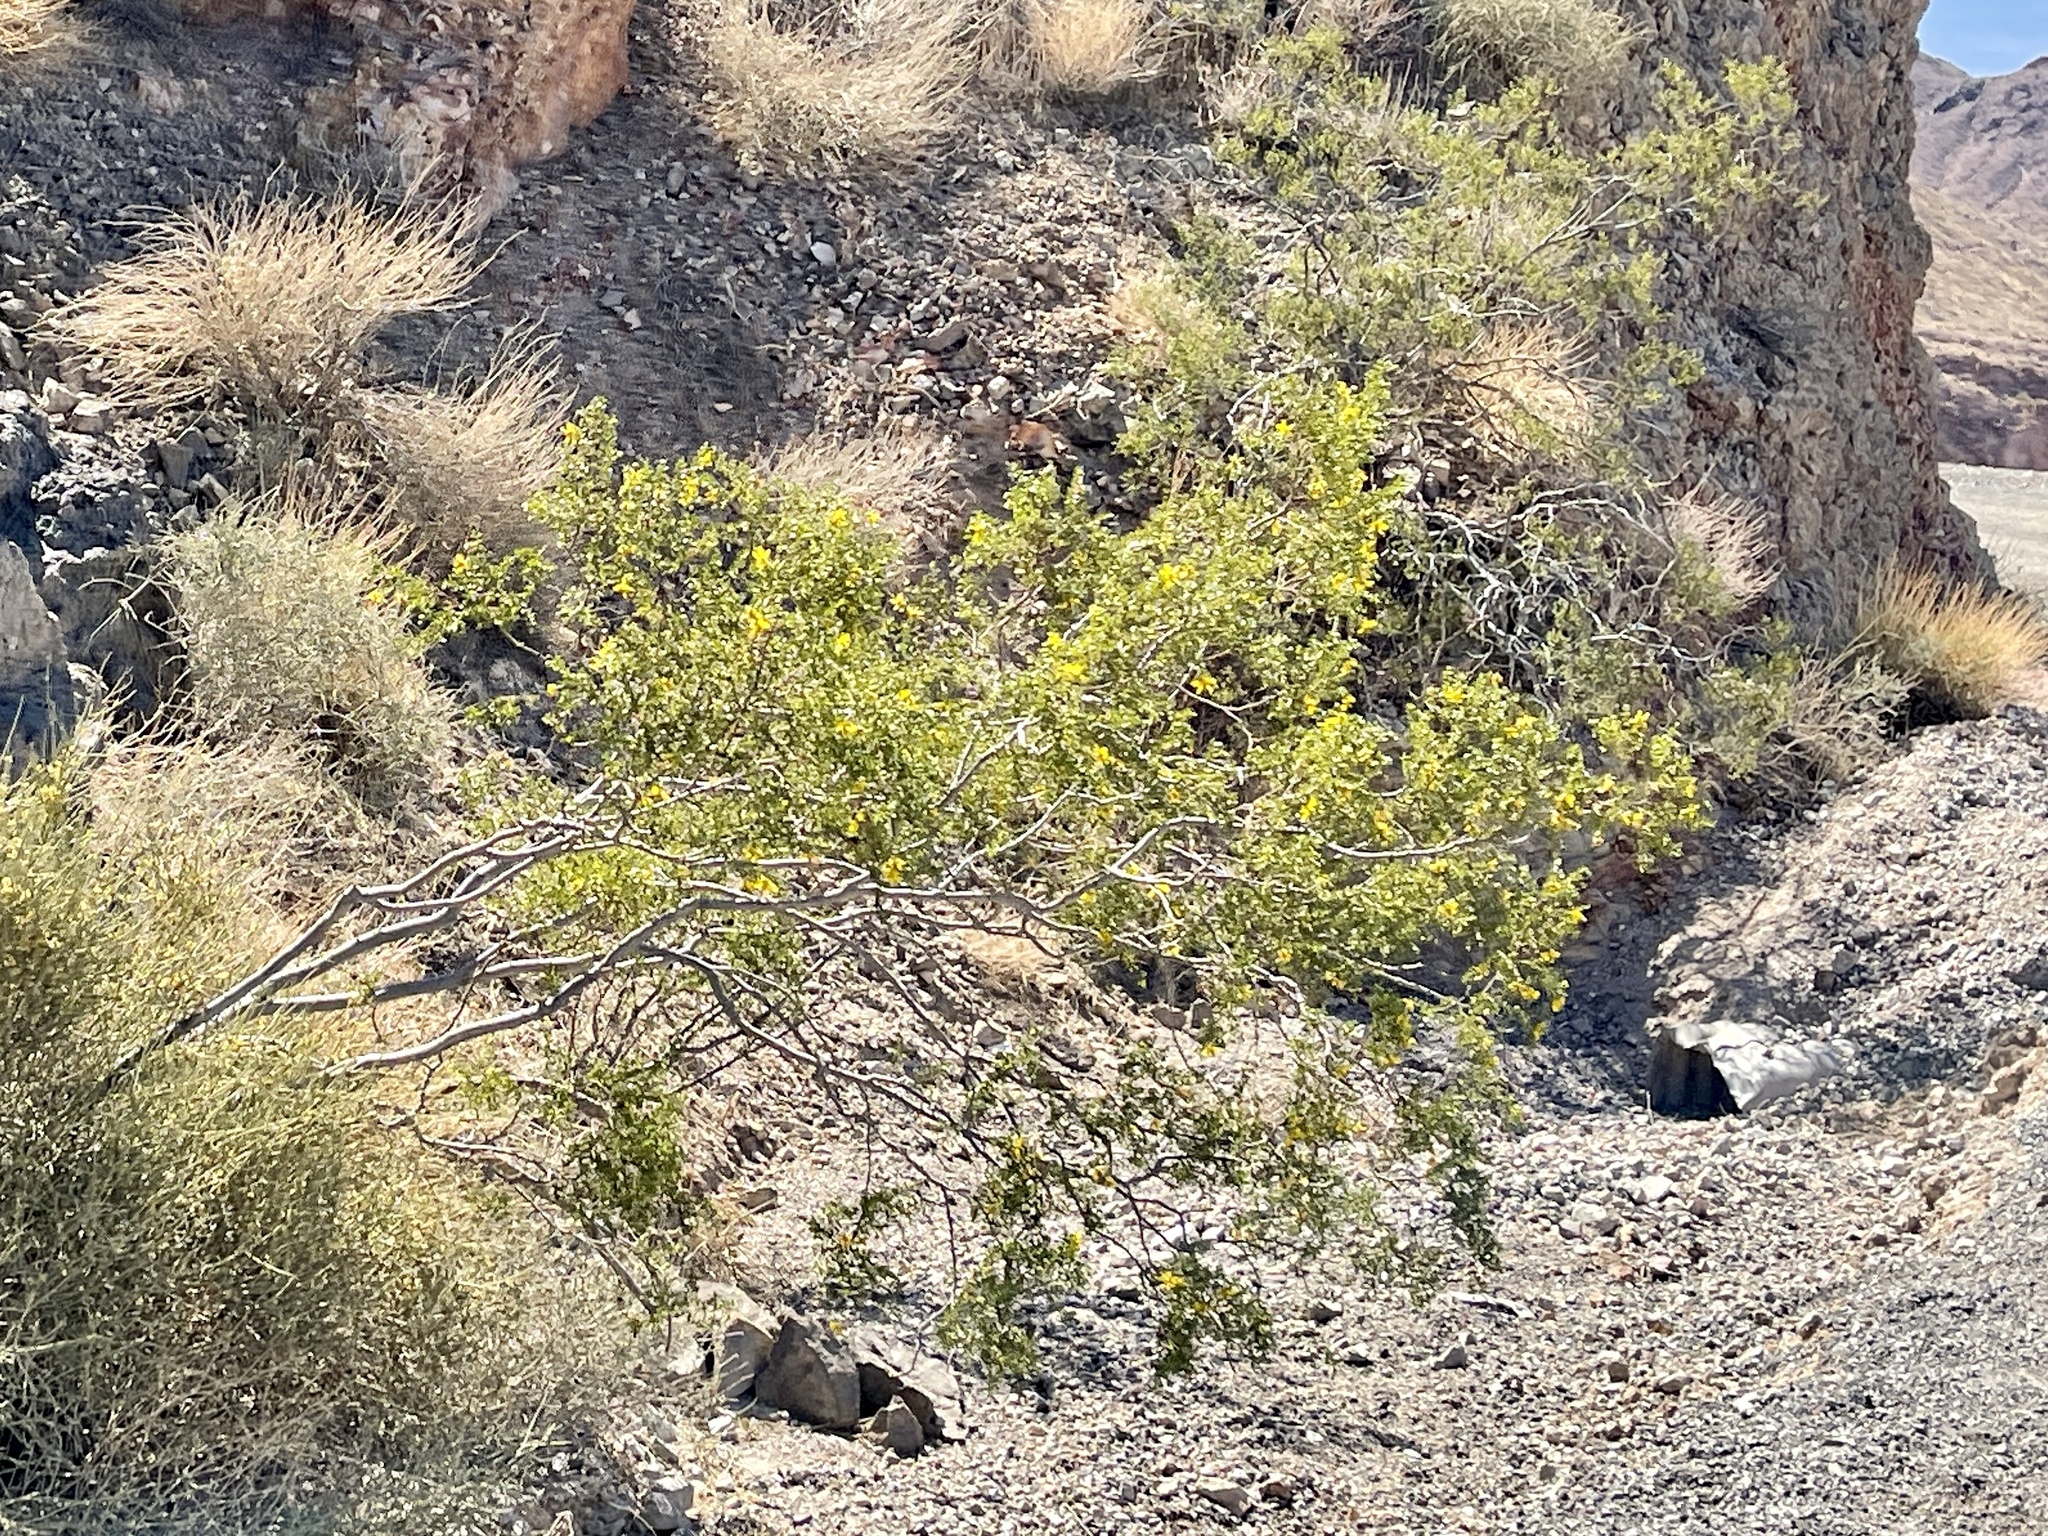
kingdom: Plantae
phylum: Tracheophyta
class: Magnoliopsida
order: Zygophyllales
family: Zygophyllaceae
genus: Larrea
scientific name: Larrea tridentata
